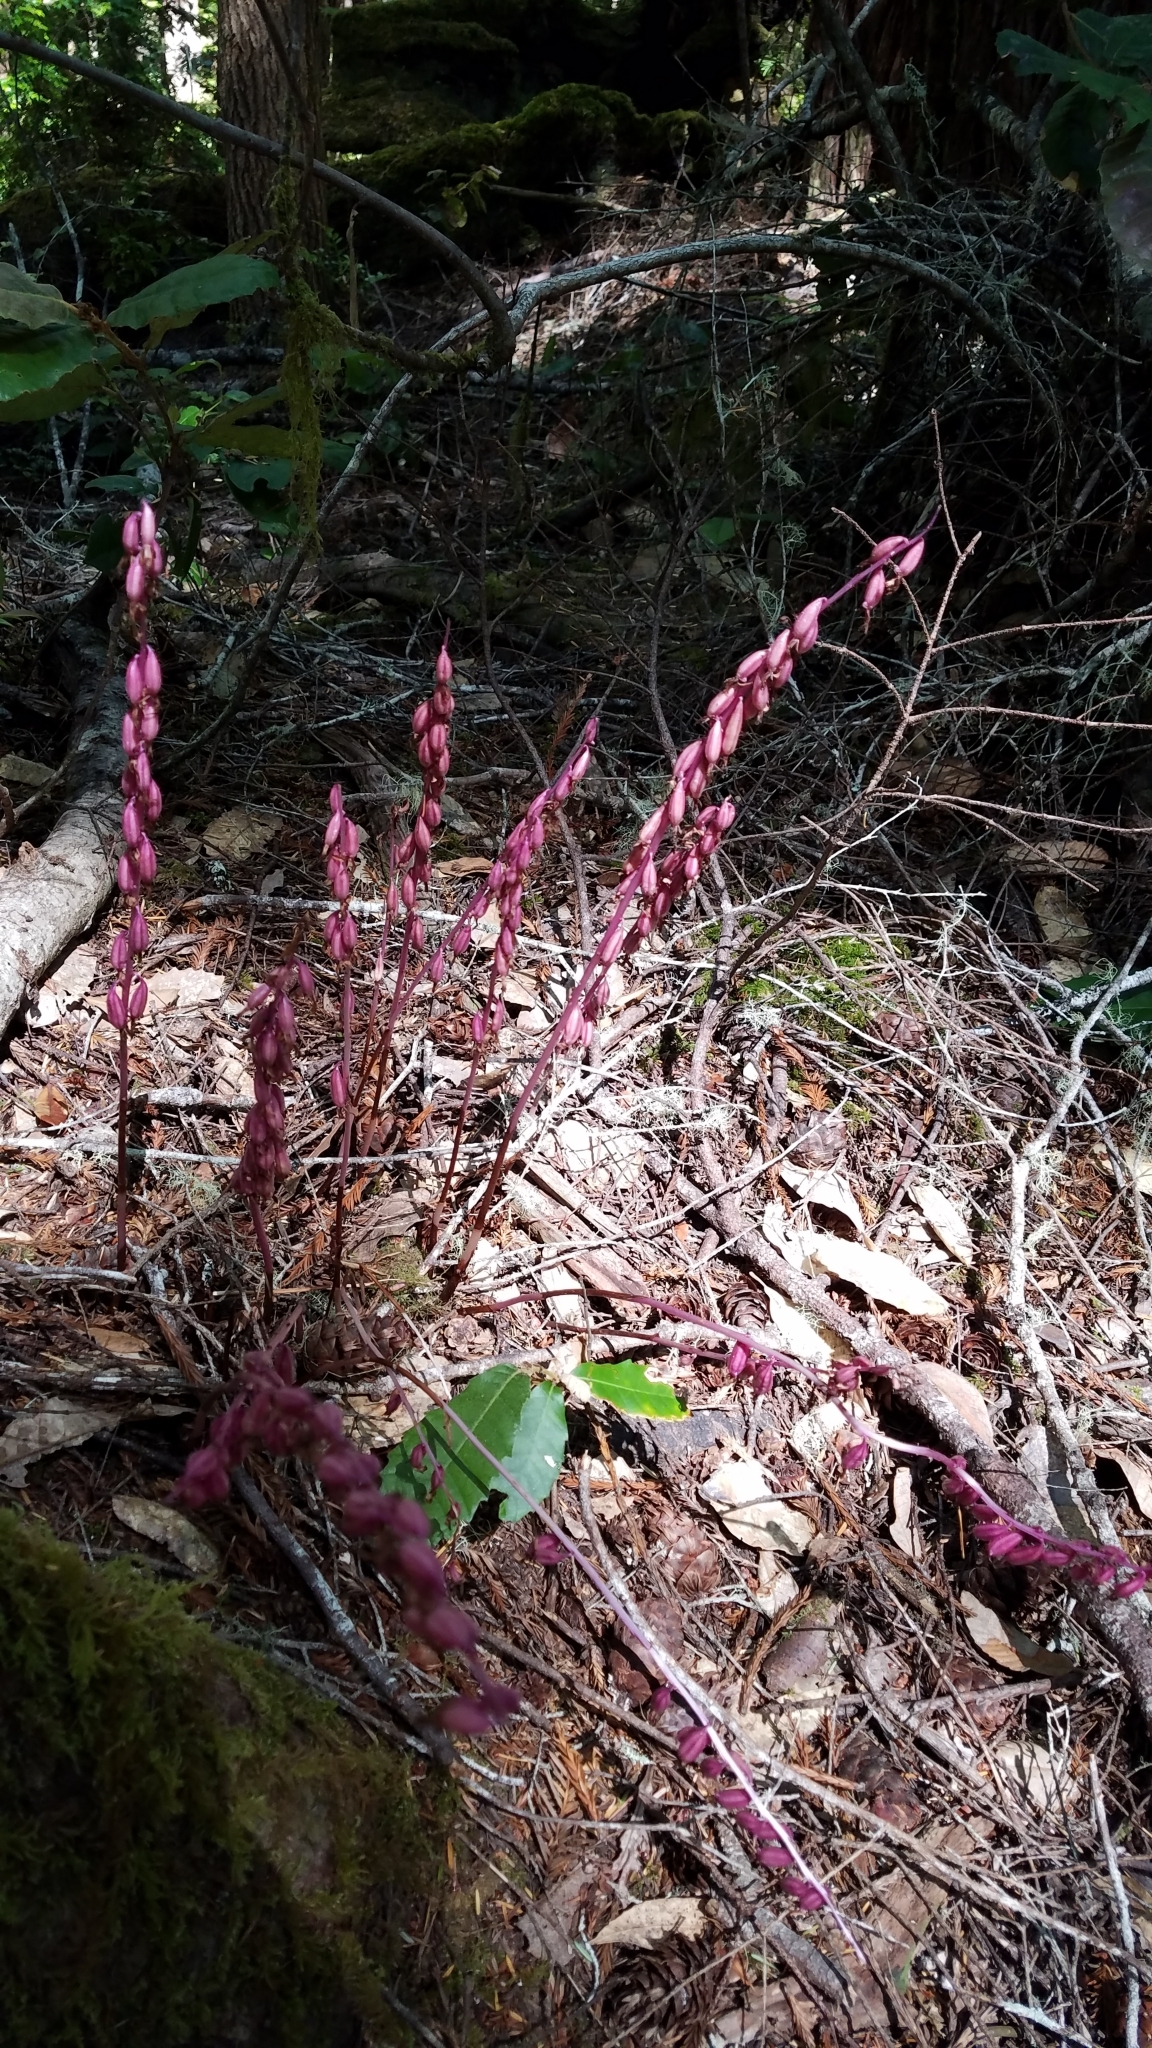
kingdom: Plantae
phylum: Tracheophyta
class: Liliopsida
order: Asparagales
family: Orchidaceae
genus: Corallorhiza
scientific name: Corallorhiza mertensiana
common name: Pacific coralroot
